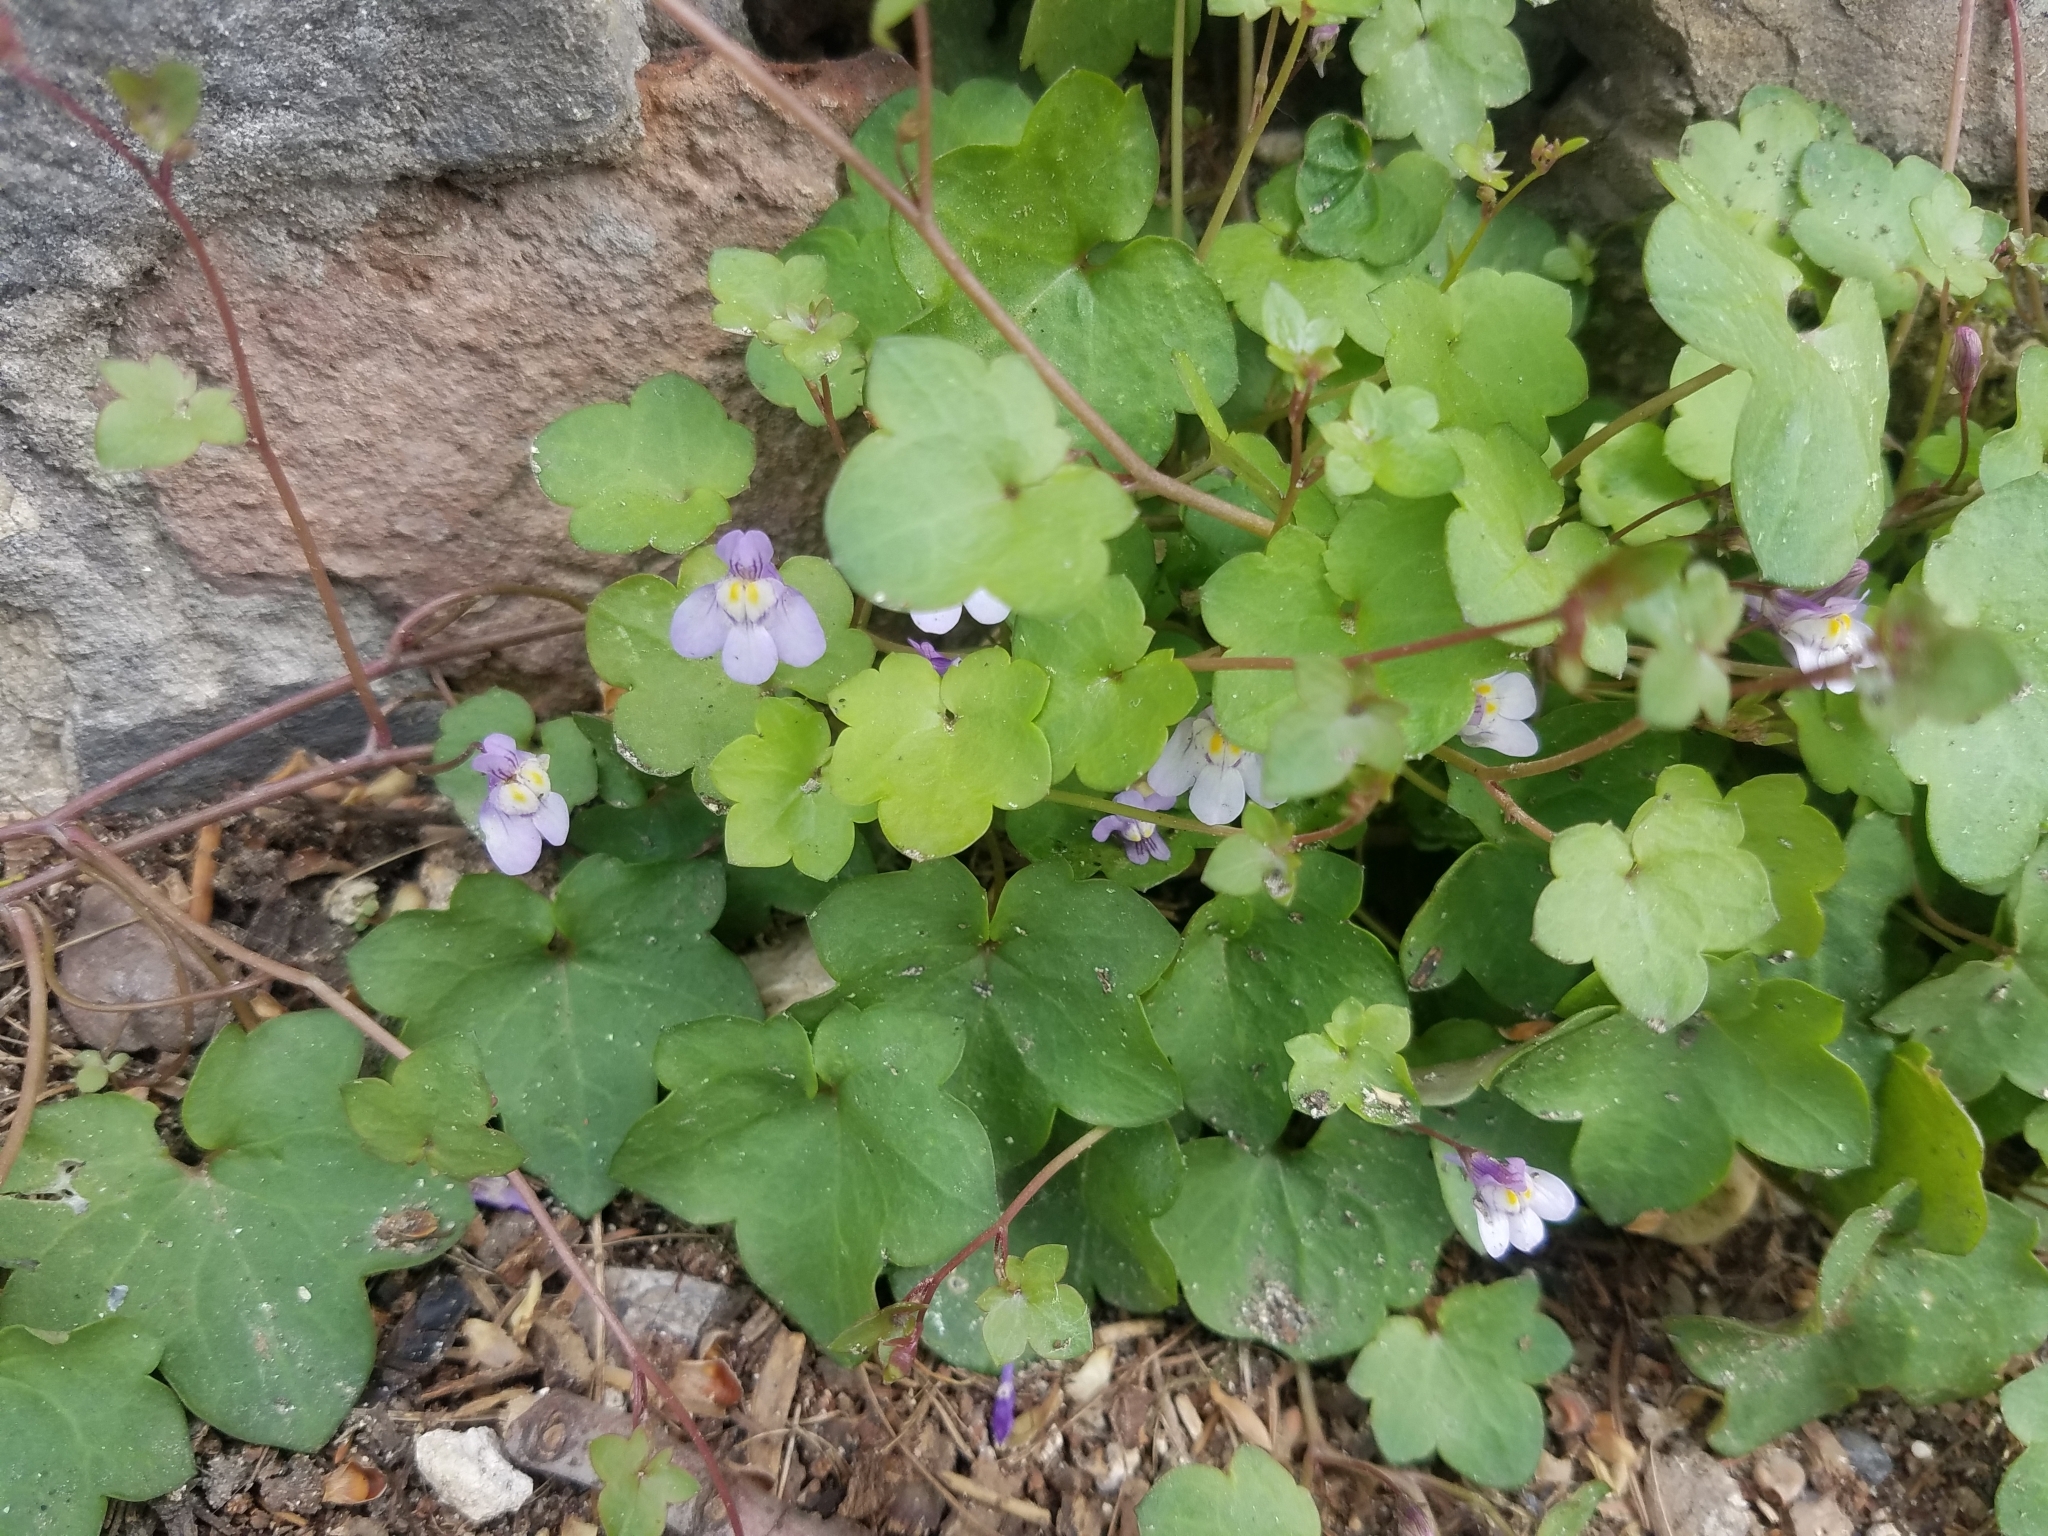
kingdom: Plantae
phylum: Tracheophyta
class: Magnoliopsida
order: Lamiales
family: Plantaginaceae
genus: Cymbalaria
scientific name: Cymbalaria muralis
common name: Ivy-leaved toadflax
